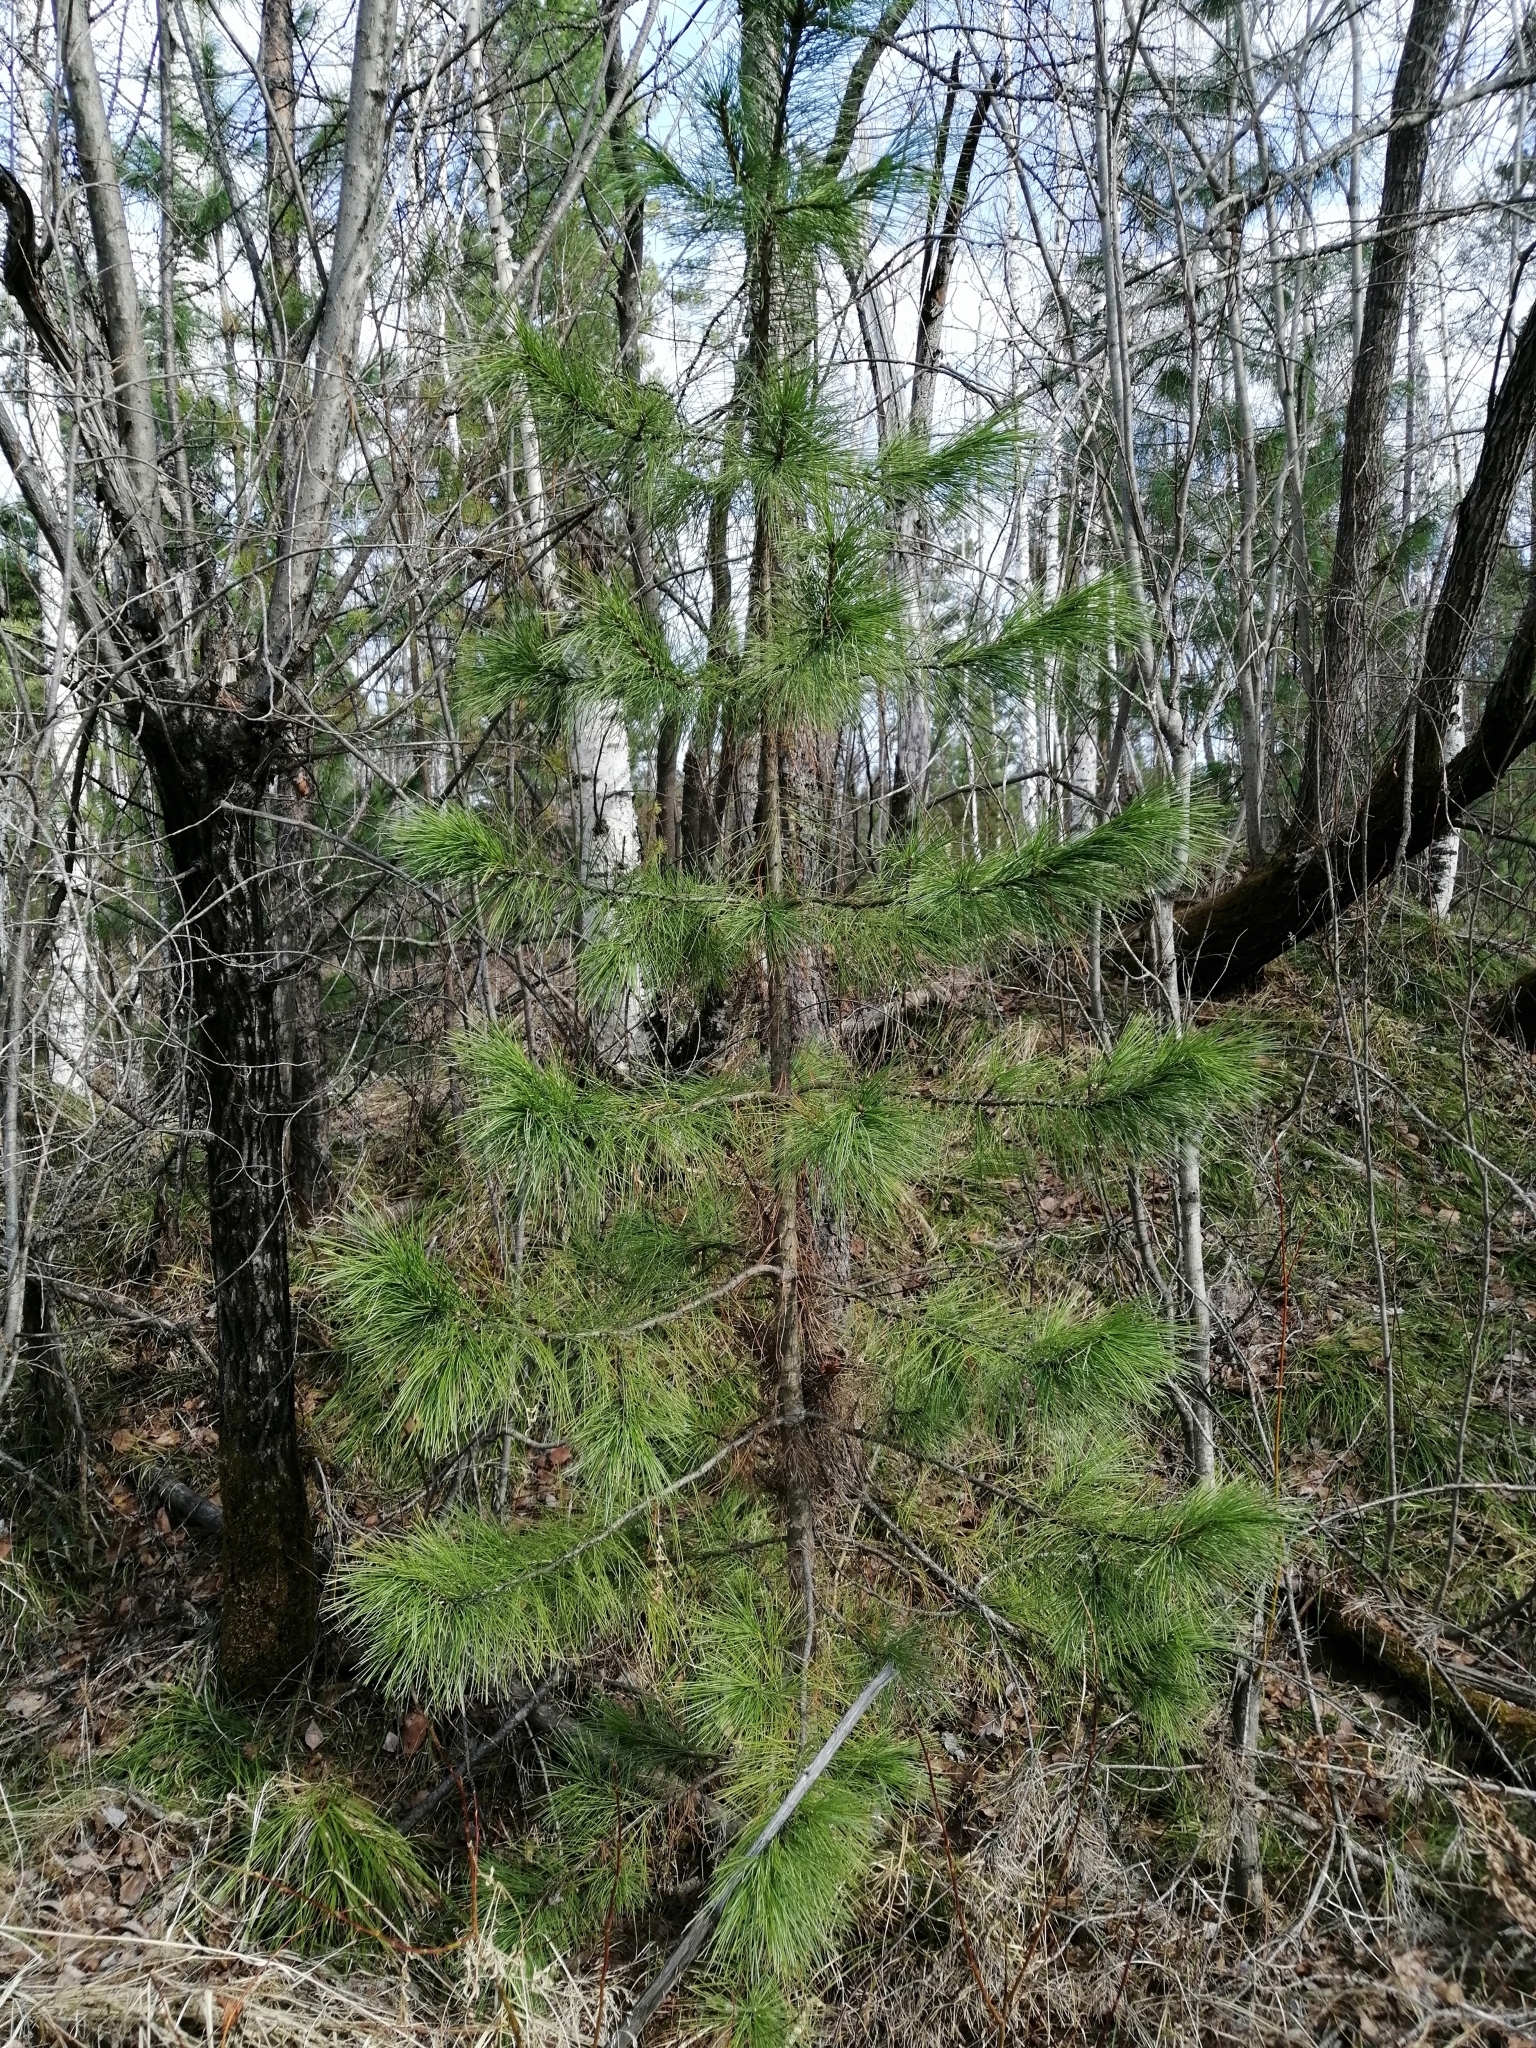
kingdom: Plantae
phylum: Tracheophyta
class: Pinopsida
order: Pinales
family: Pinaceae
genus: Pinus
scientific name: Pinus sibirica
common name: Siberian pine
